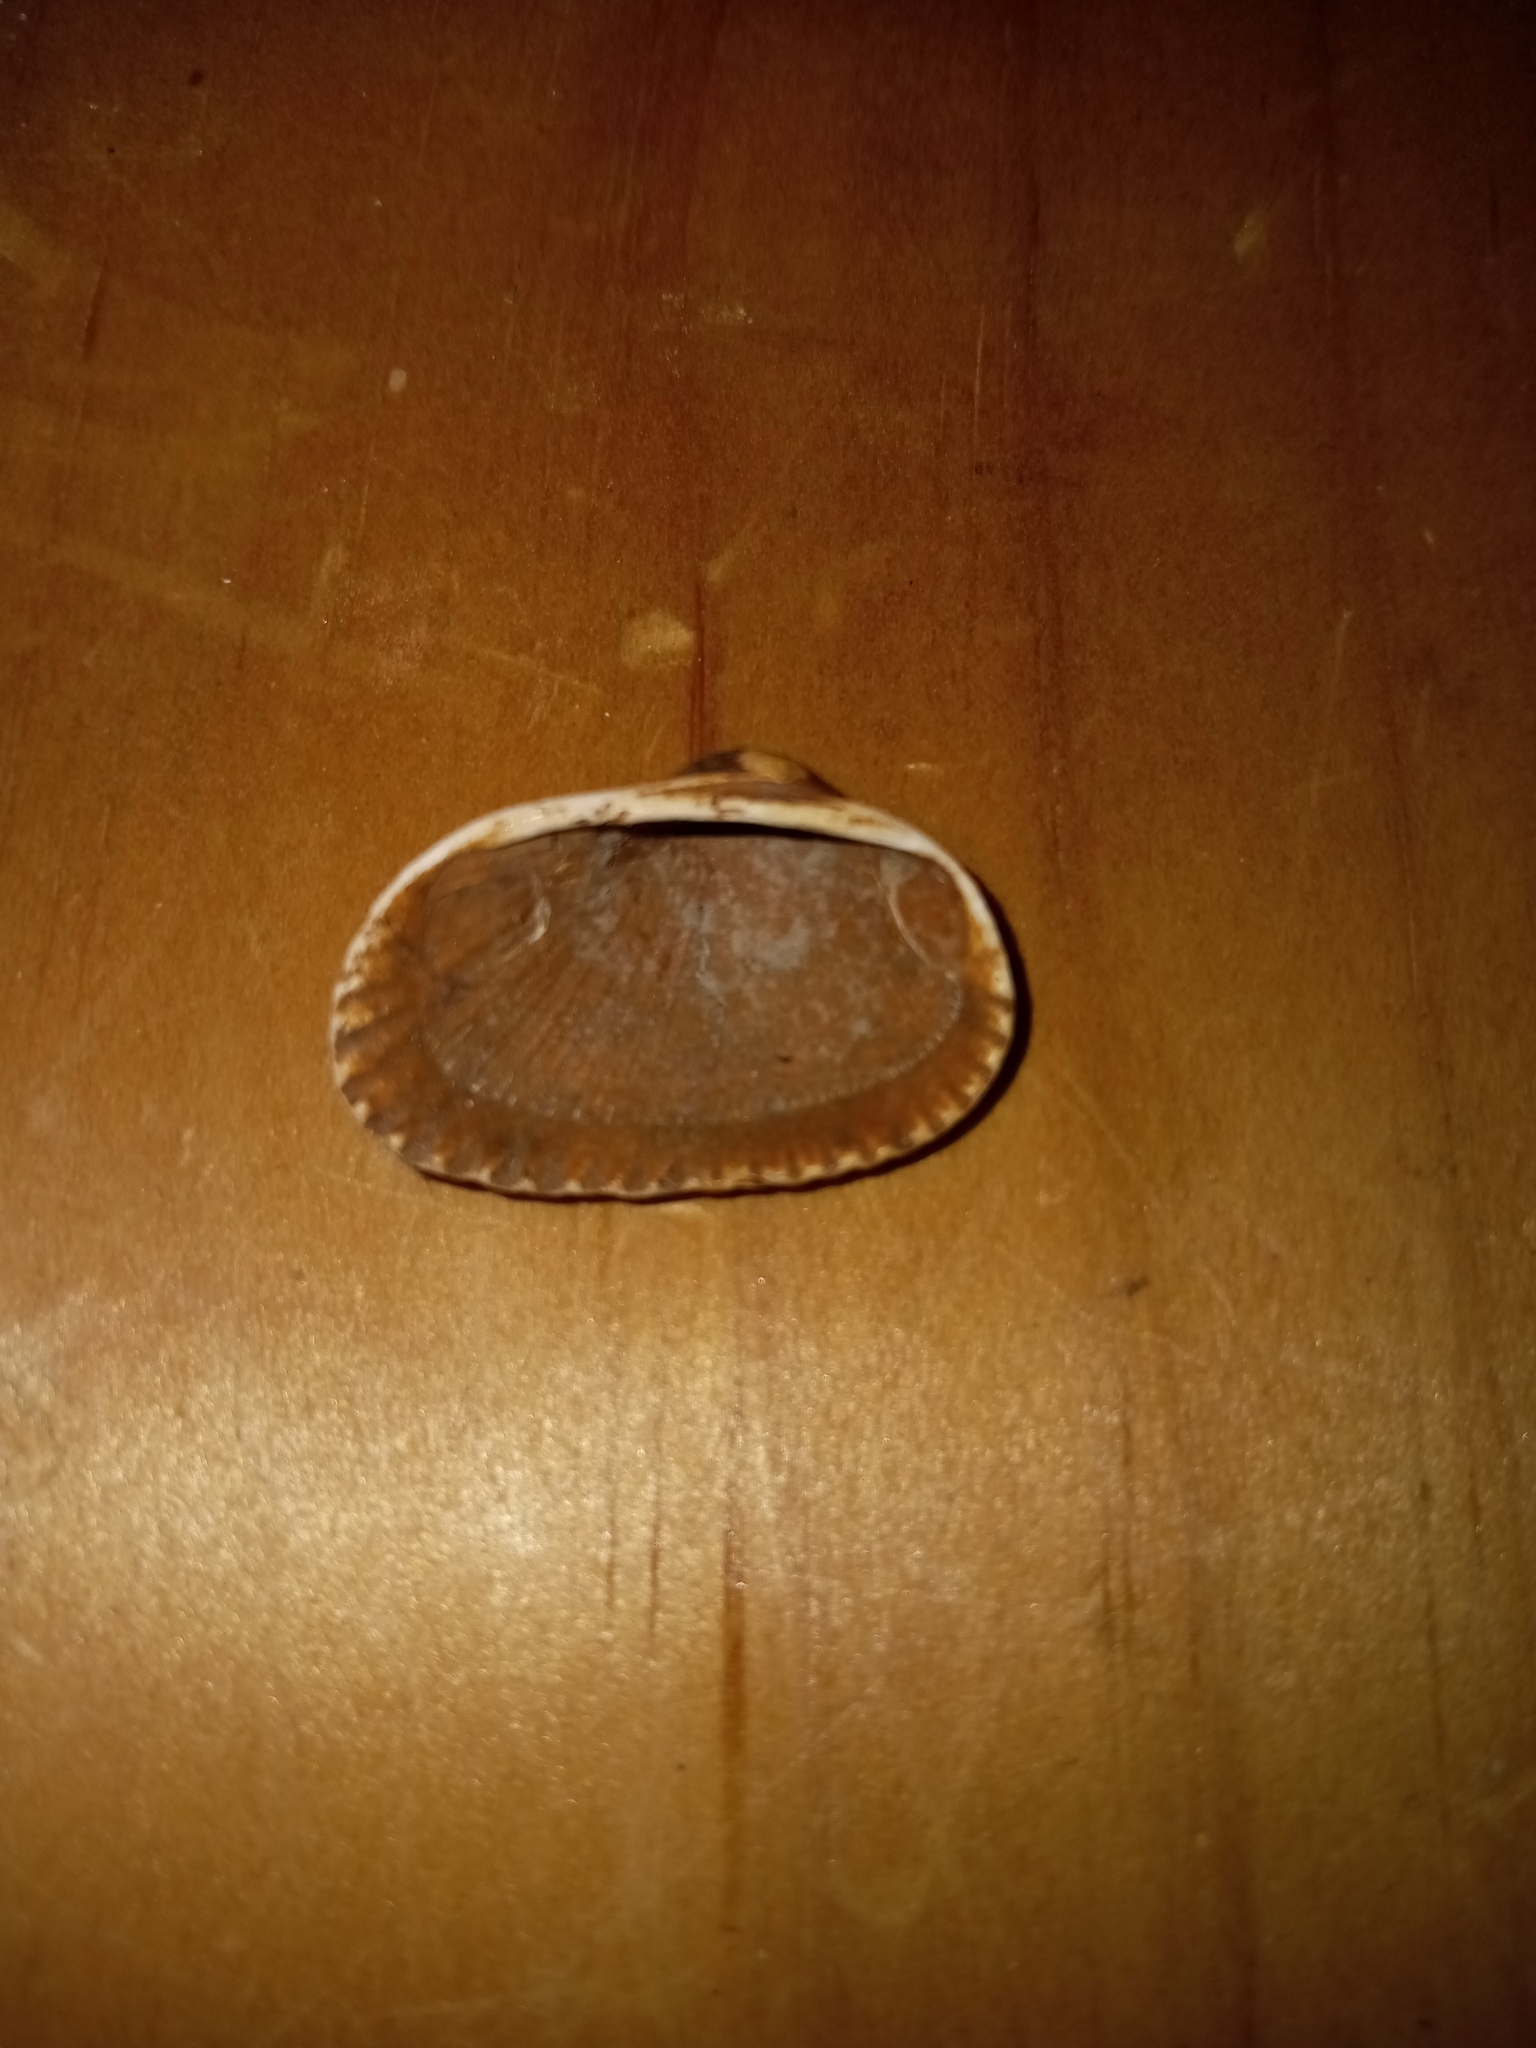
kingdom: Animalia
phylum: Mollusca
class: Bivalvia
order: Arcida
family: Arcidae
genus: Anadara
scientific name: Anadara transversa
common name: Transverse ark
